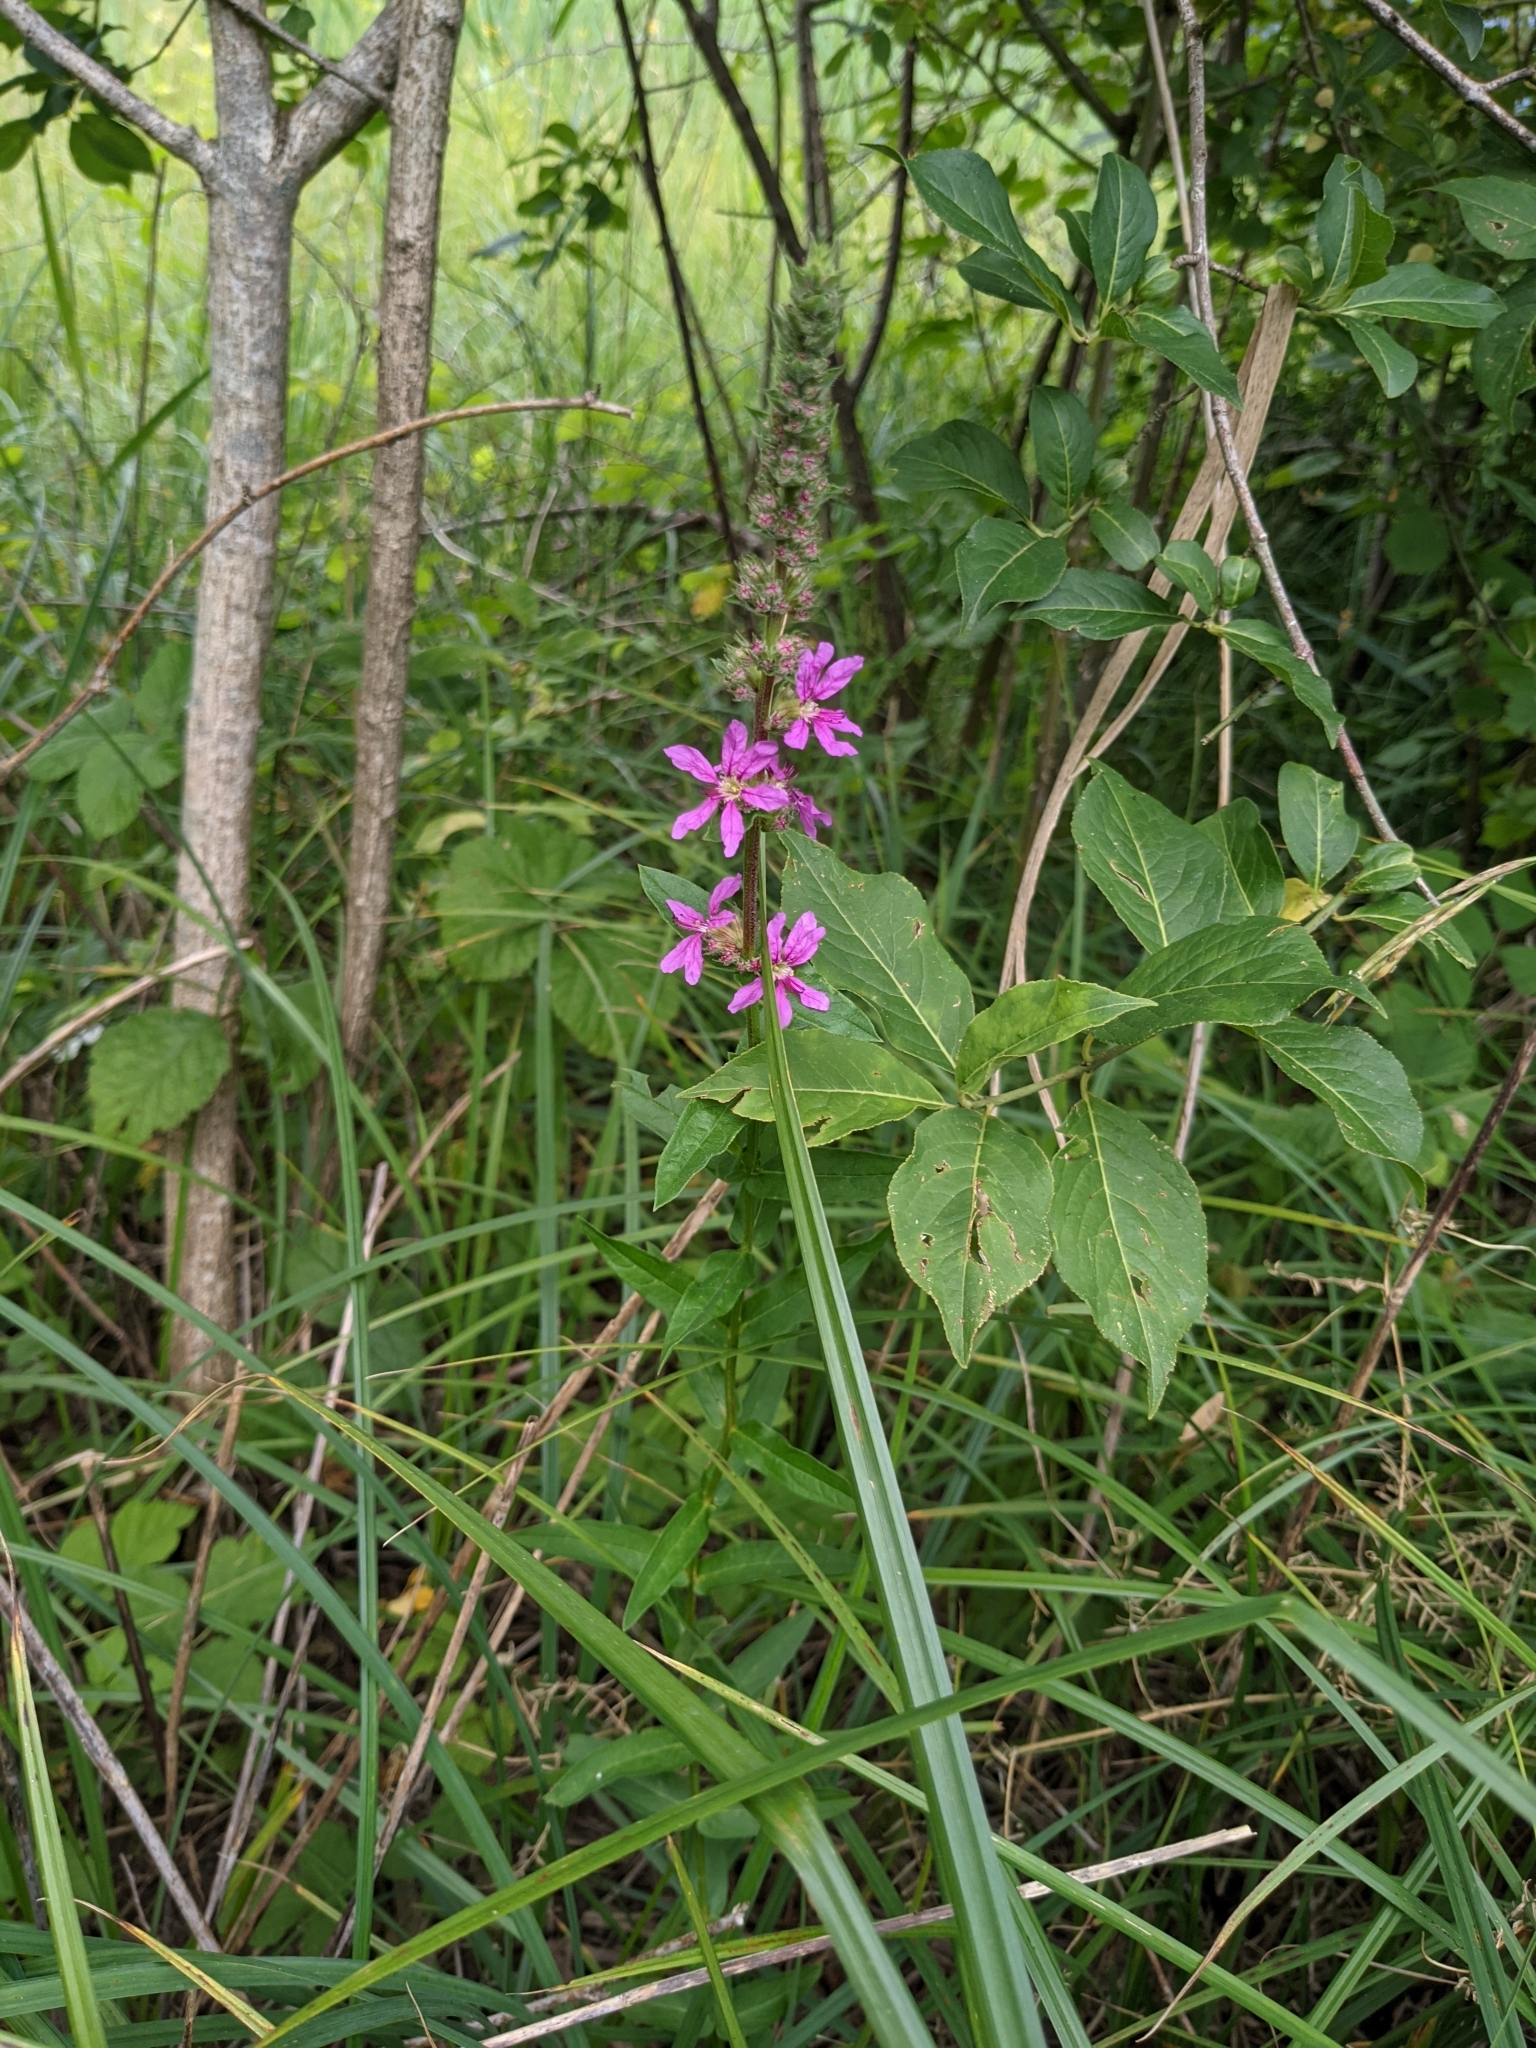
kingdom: Plantae
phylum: Tracheophyta
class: Magnoliopsida
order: Myrtales
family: Lythraceae
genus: Lythrum
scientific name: Lythrum salicaria
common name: Purple loosestrife
